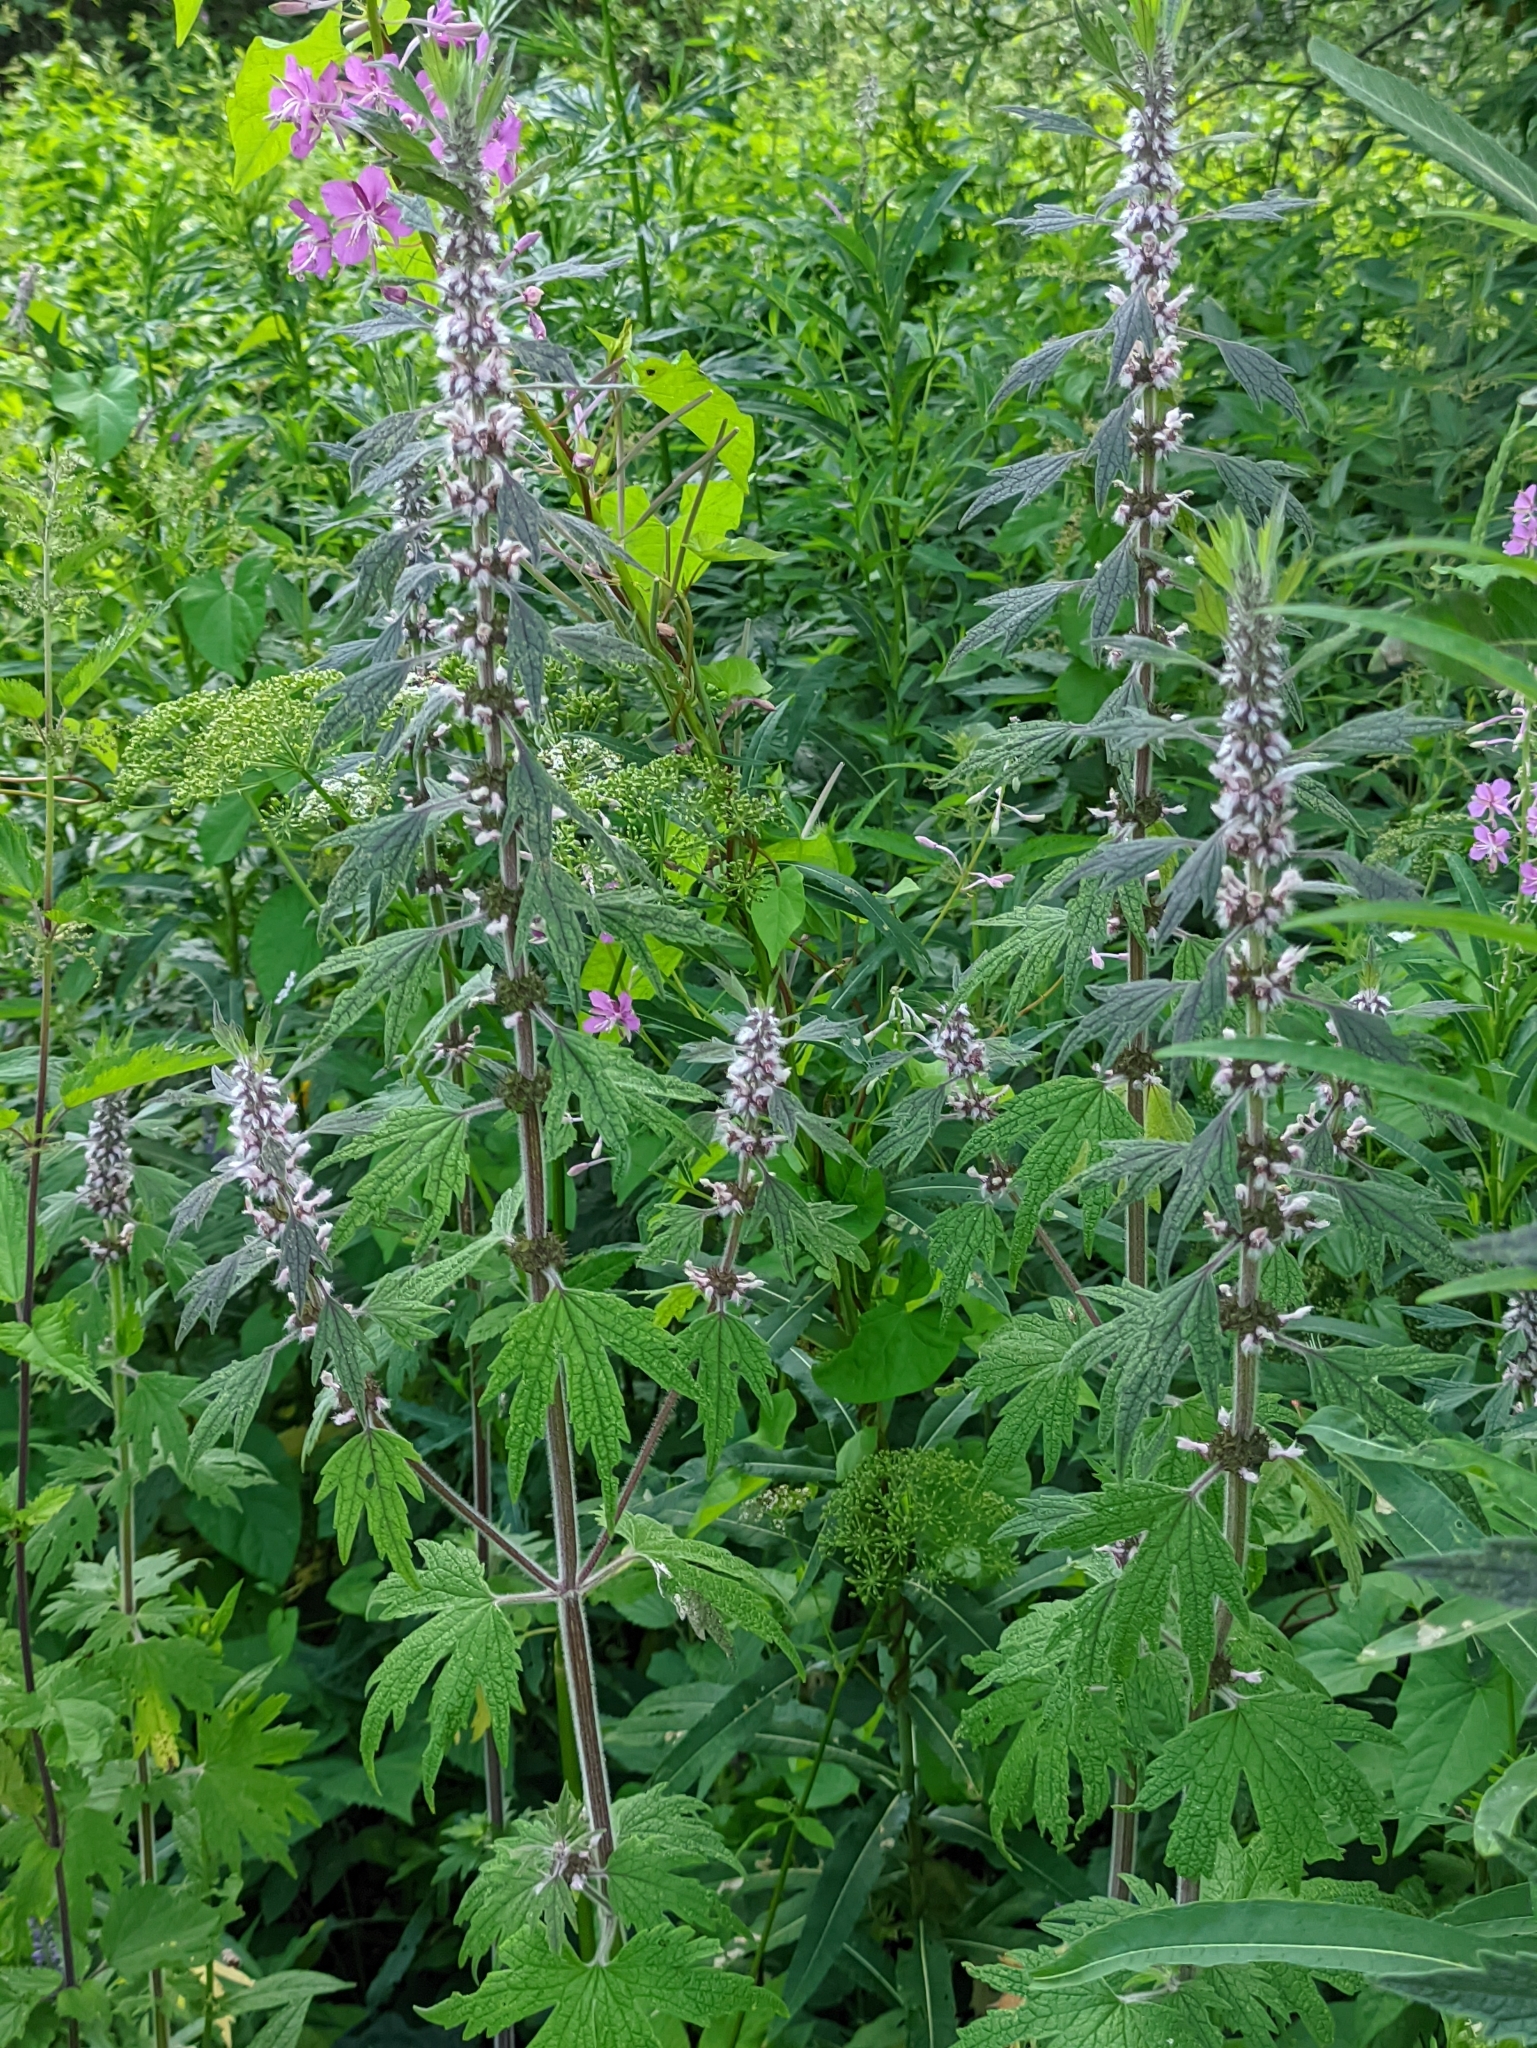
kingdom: Plantae
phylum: Tracheophyta
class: Magnoliopsida
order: Lamiales
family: Lamiaceae
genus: Leonurus
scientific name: Leonurus quinquelobatus
